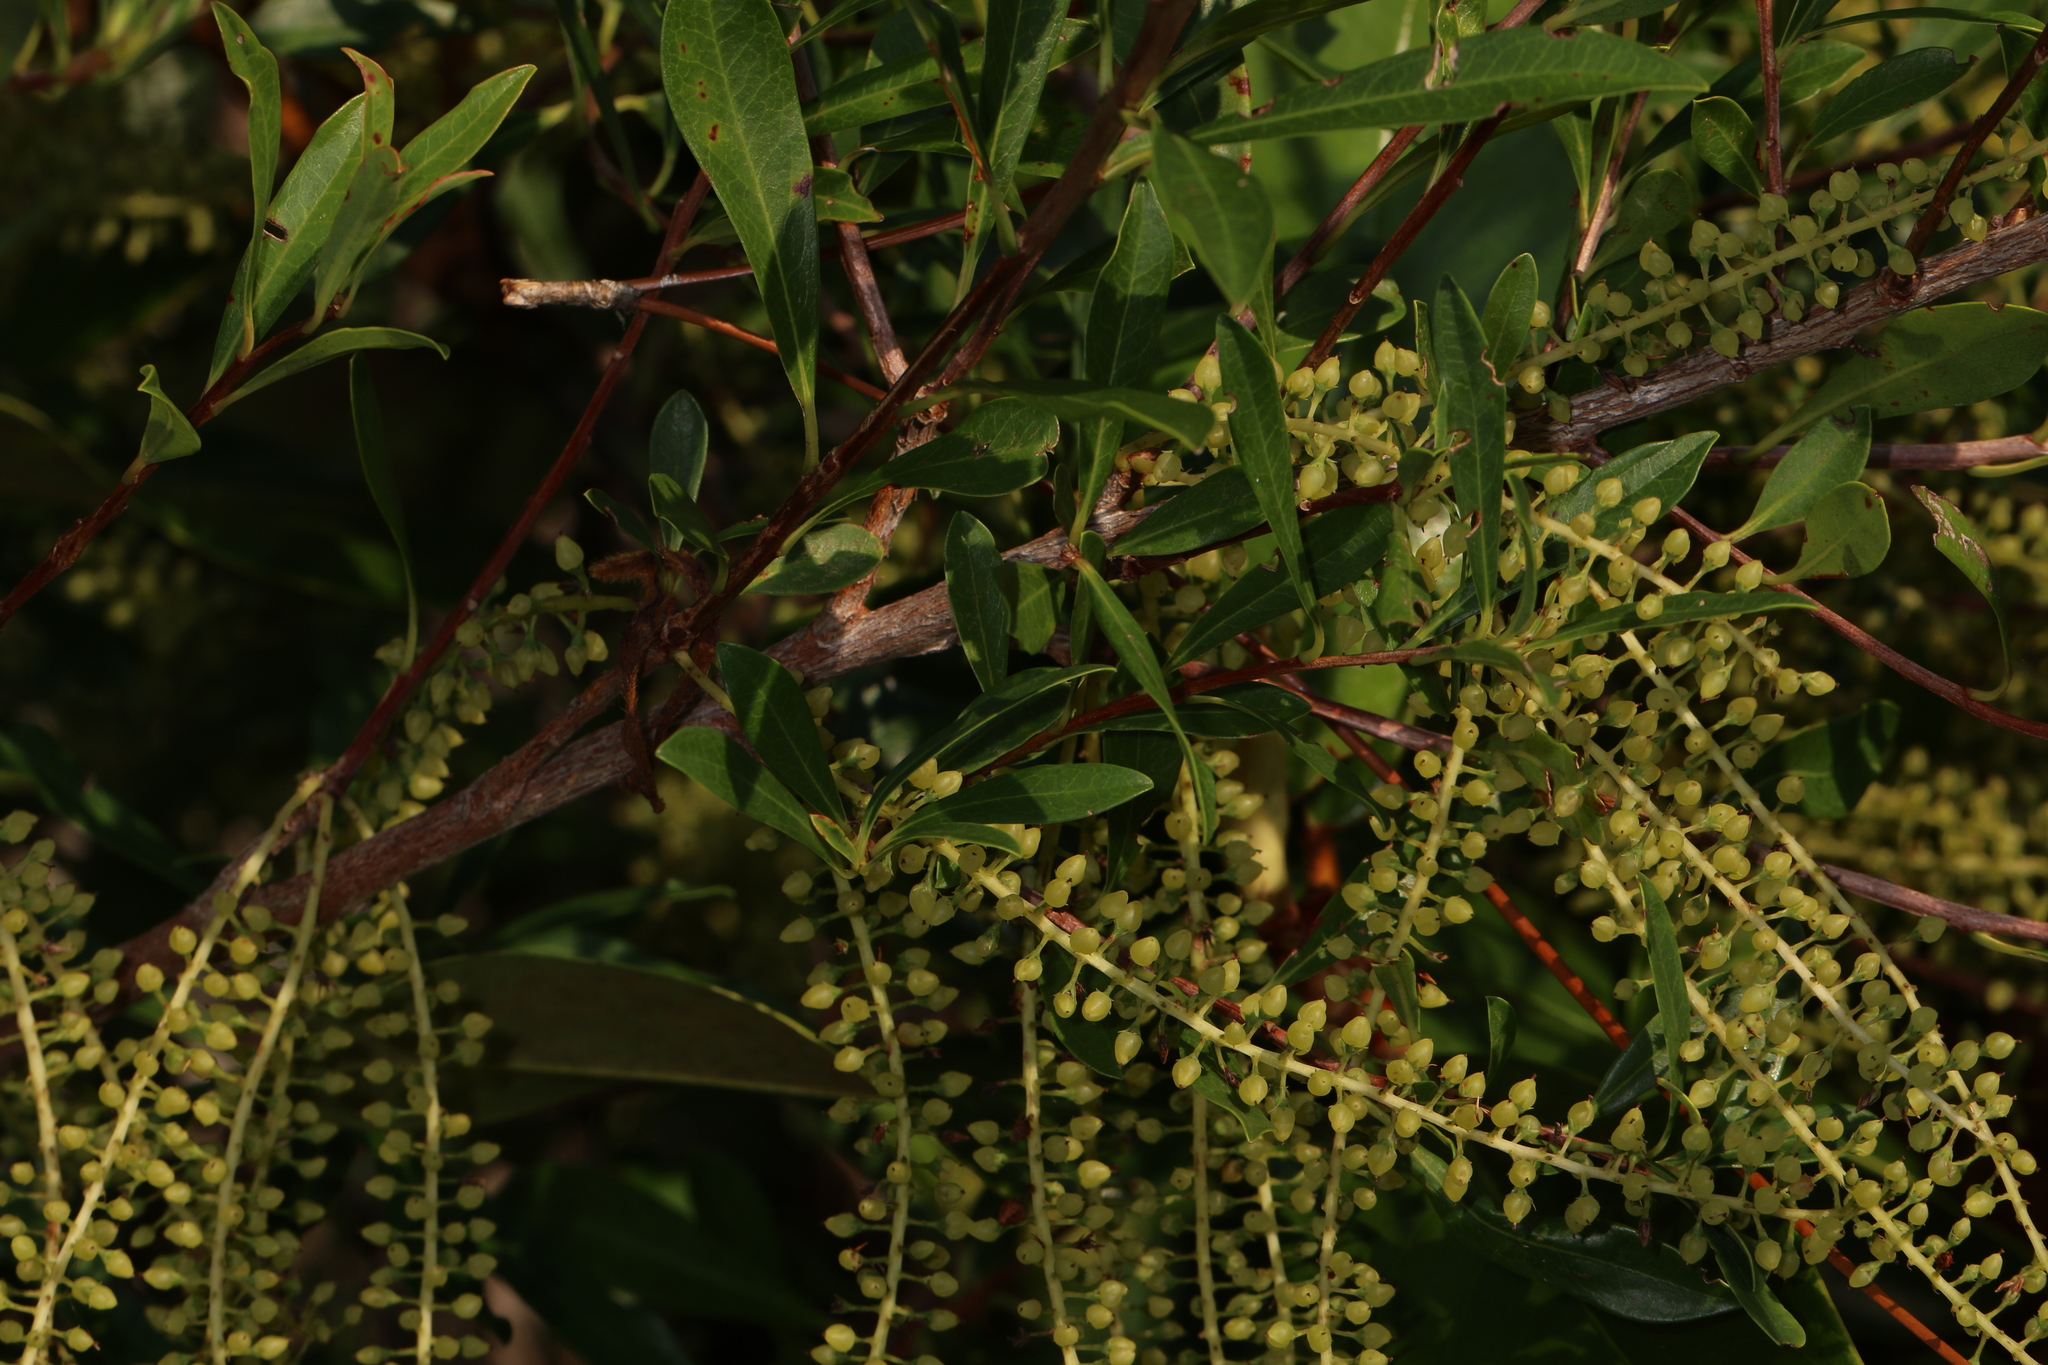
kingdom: Plantae
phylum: Tracheophyta
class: Magnoliopsida
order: Ericales
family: Cyrillaceae
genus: Cyrilla
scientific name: Cyrilla racemiflora
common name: Black titi
